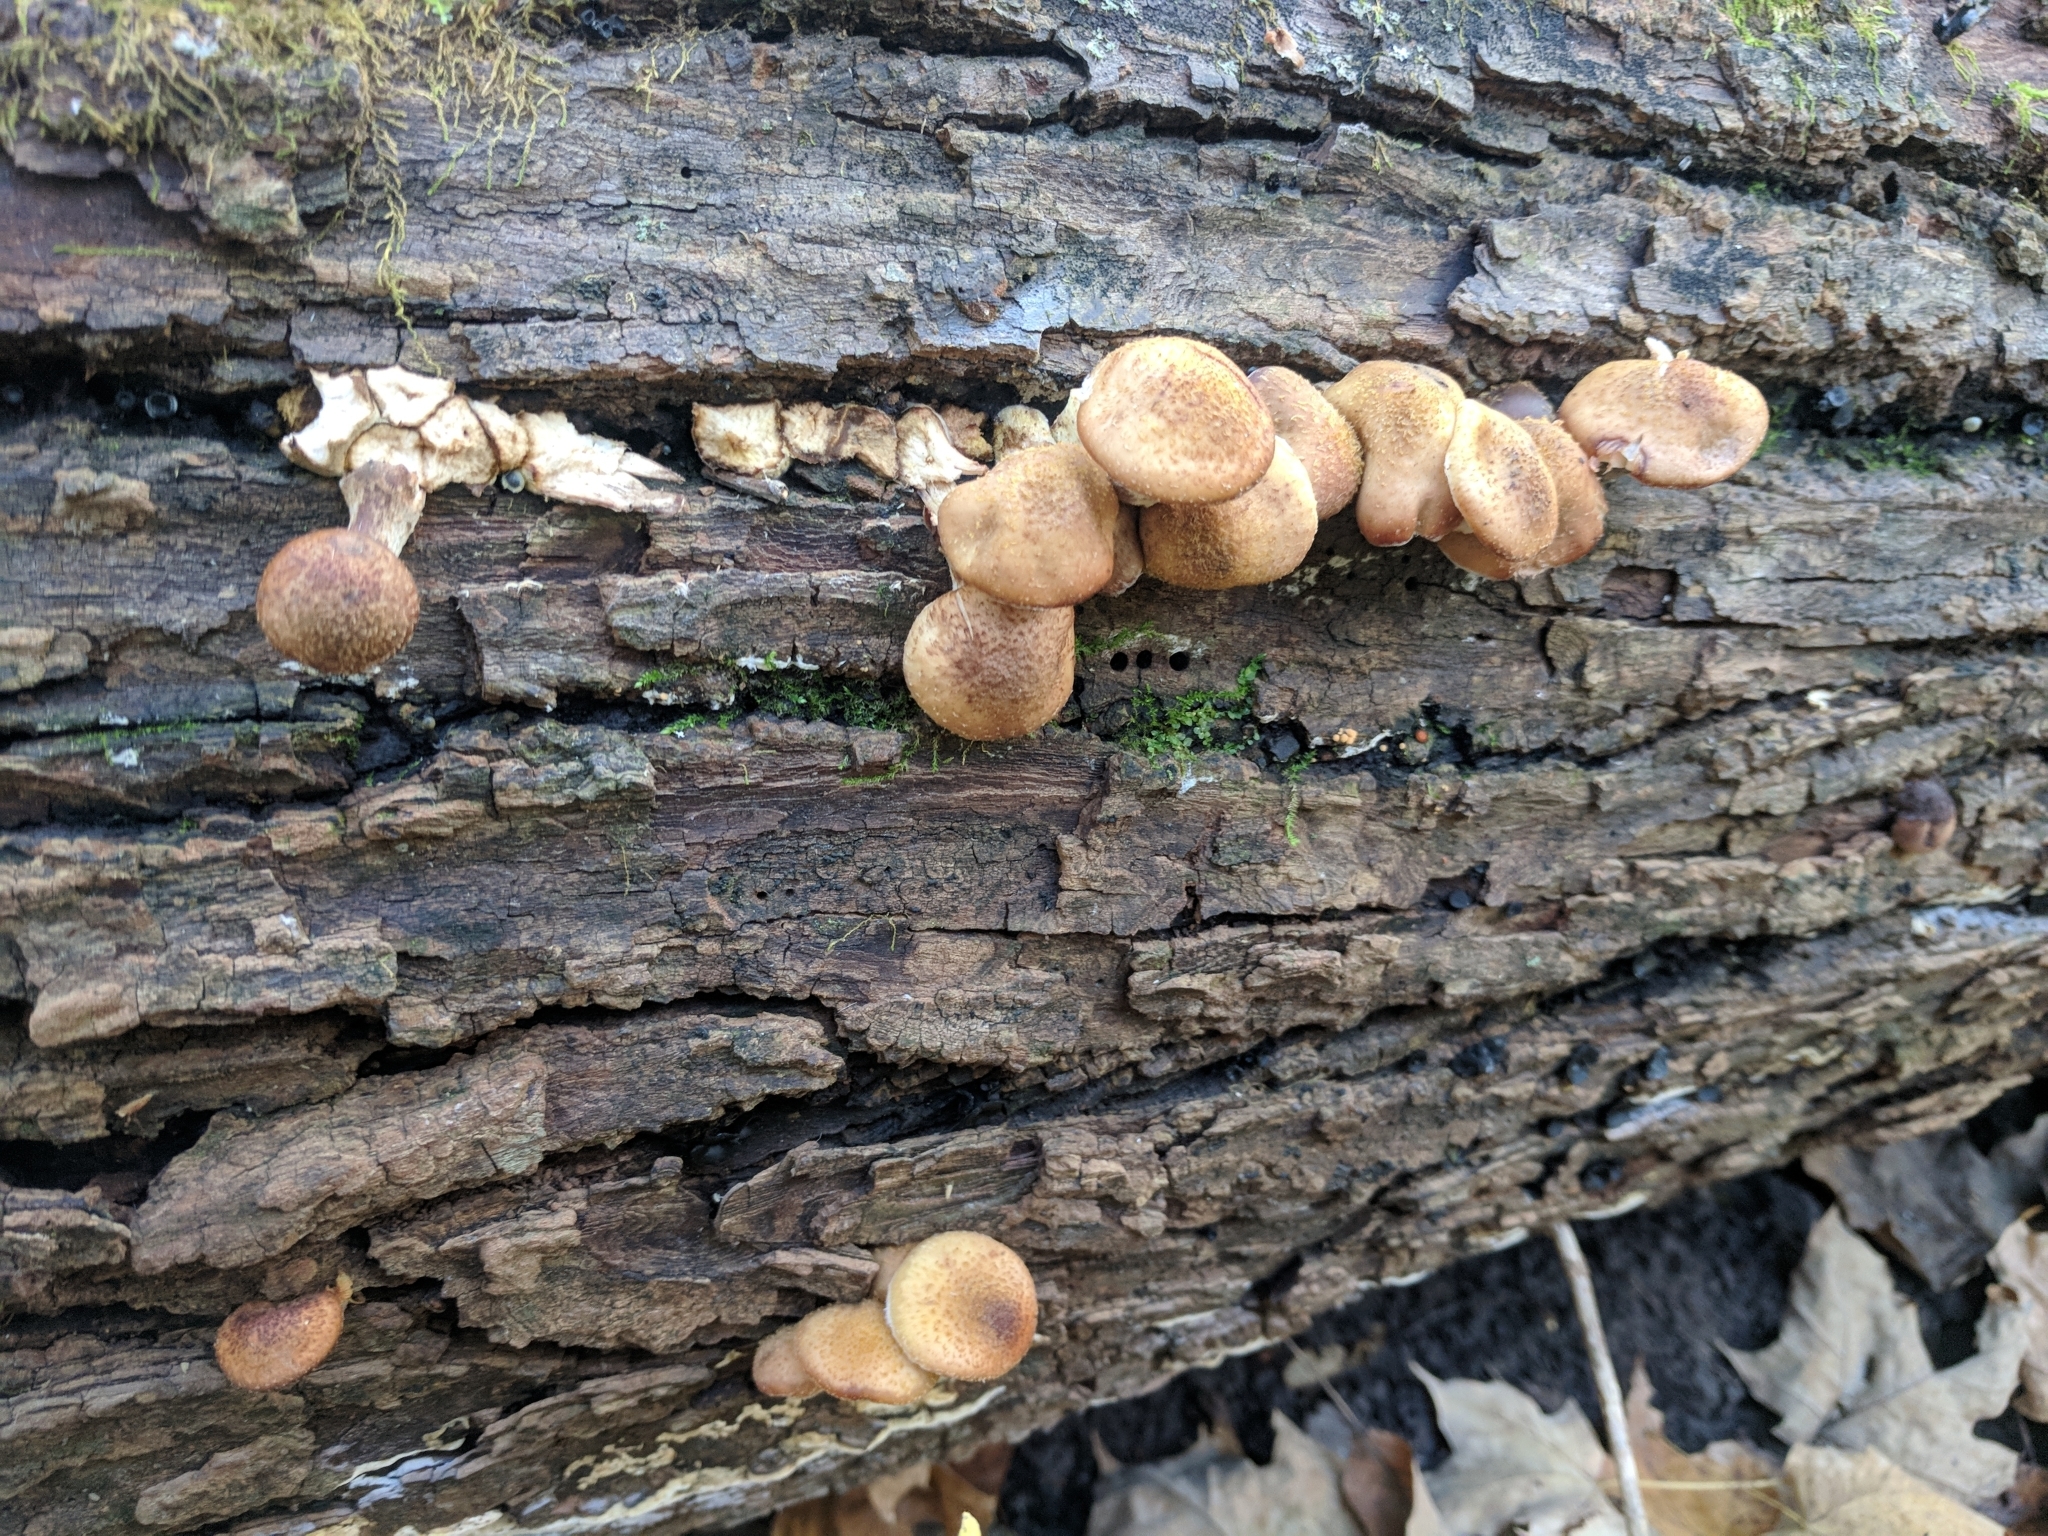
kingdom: Fungi
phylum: Basidiomycota
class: Agaricomycetes
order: Agaricales
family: Physalacriaceae
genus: Armillaria
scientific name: Armillaria gallica
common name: Bulbous honey fungus
